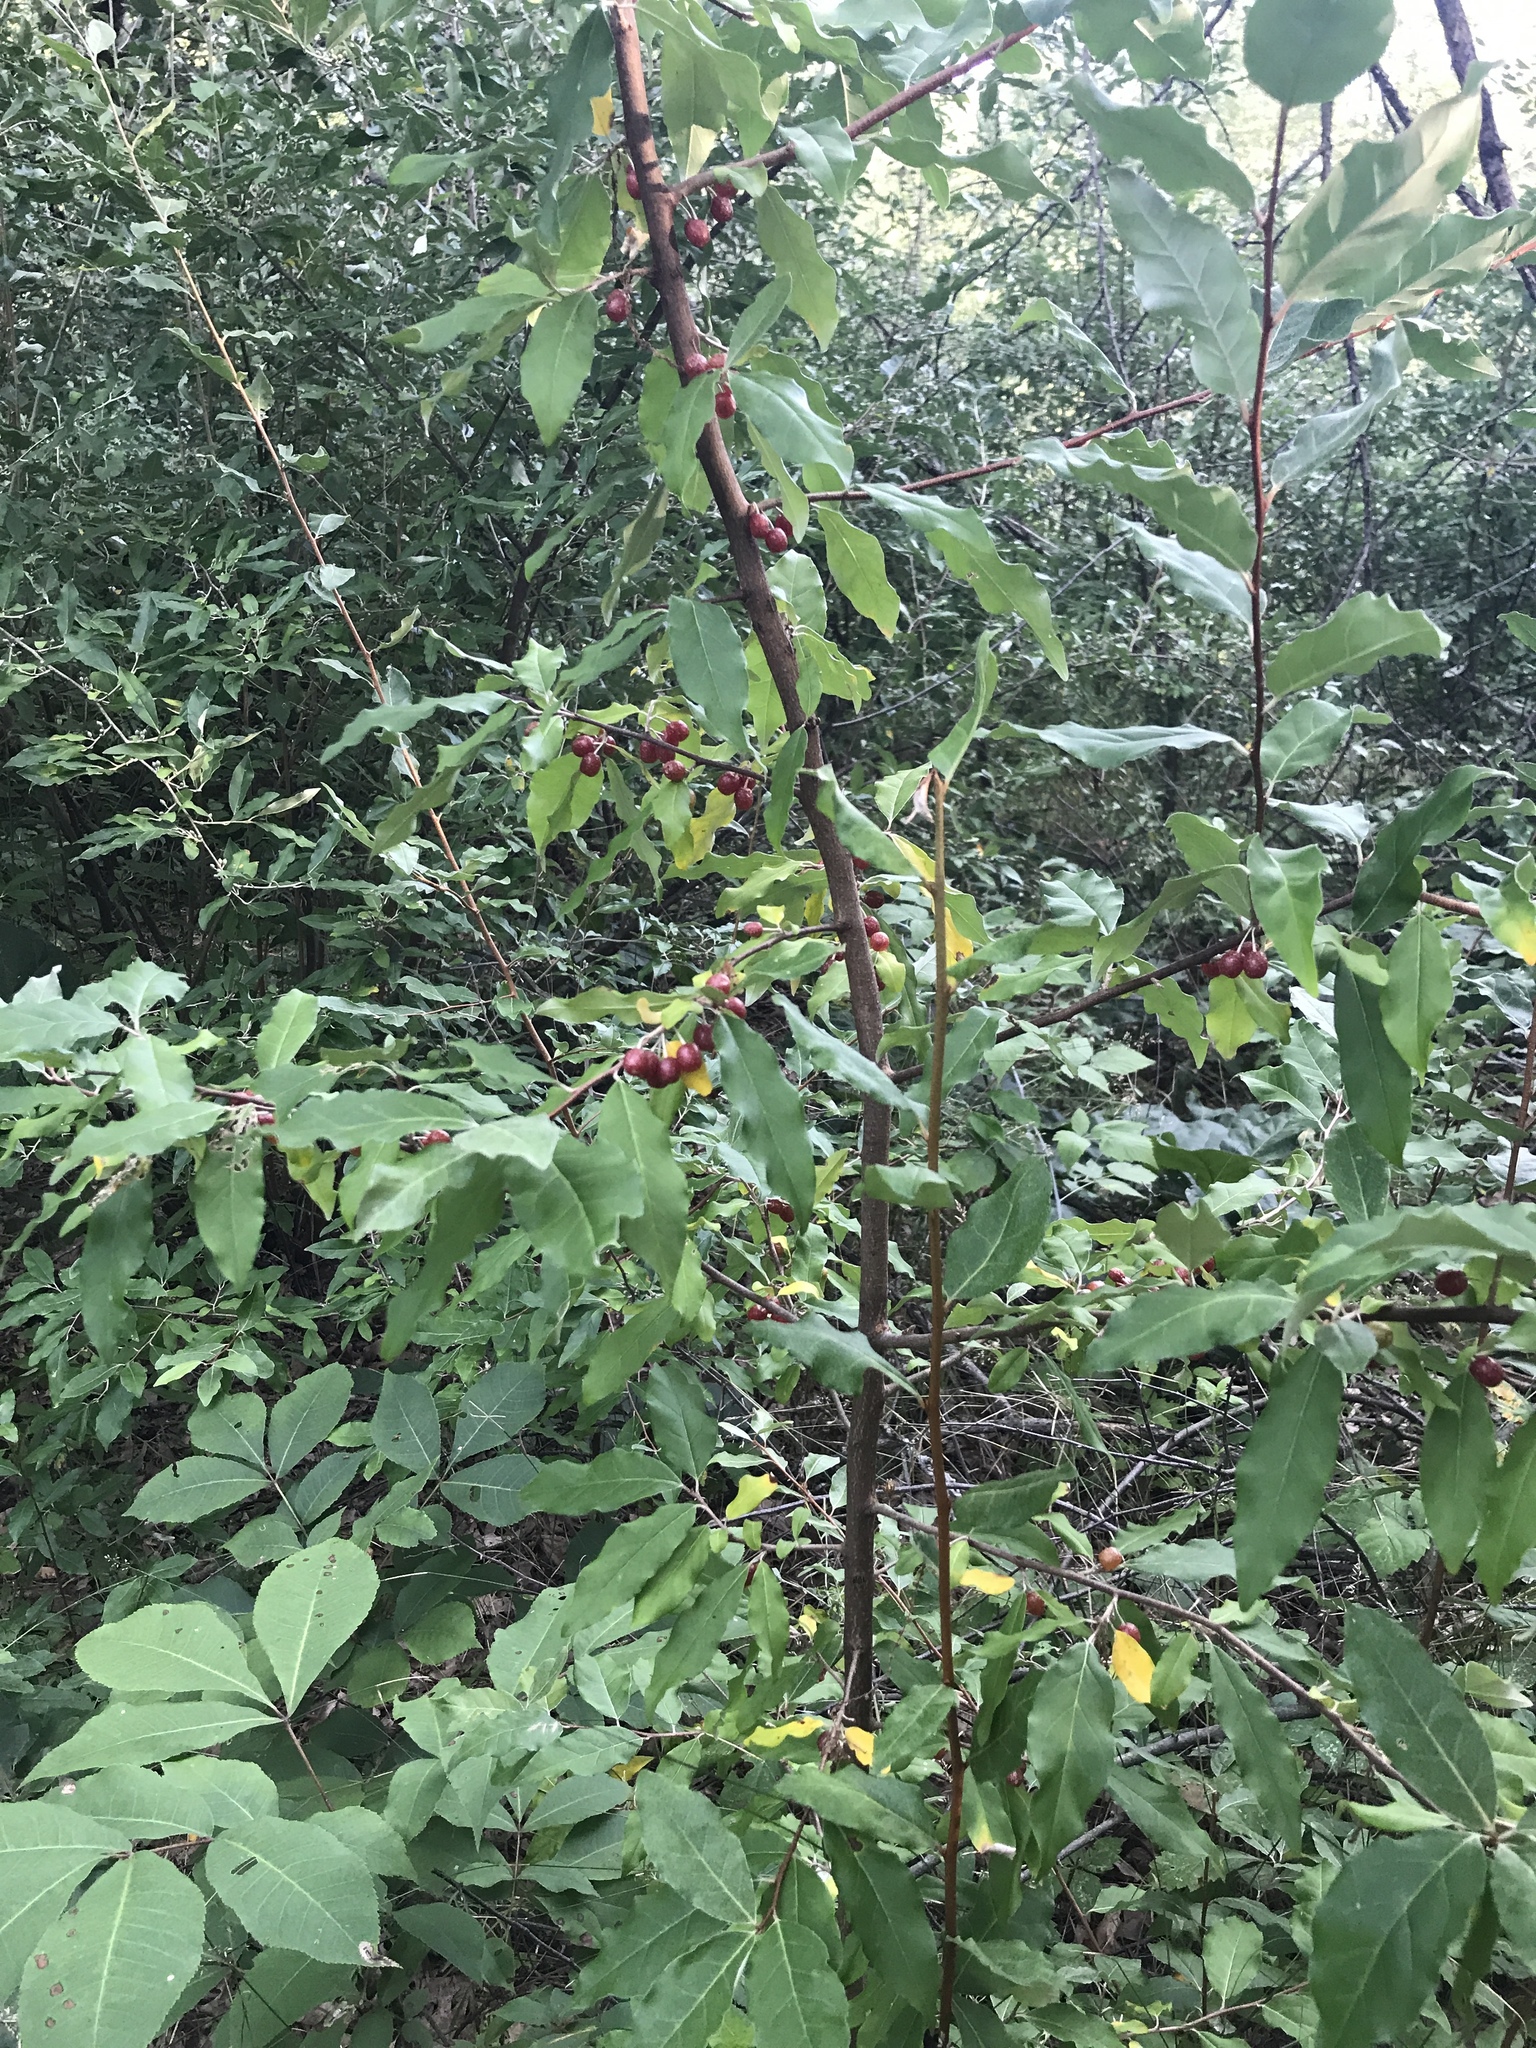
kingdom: Plantae
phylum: Tracheophyta
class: Magnoliopsida
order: Rosales
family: Elaeagnaceae
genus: Elaeagnus
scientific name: Elaeagnus umbellata
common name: Autumn olive
